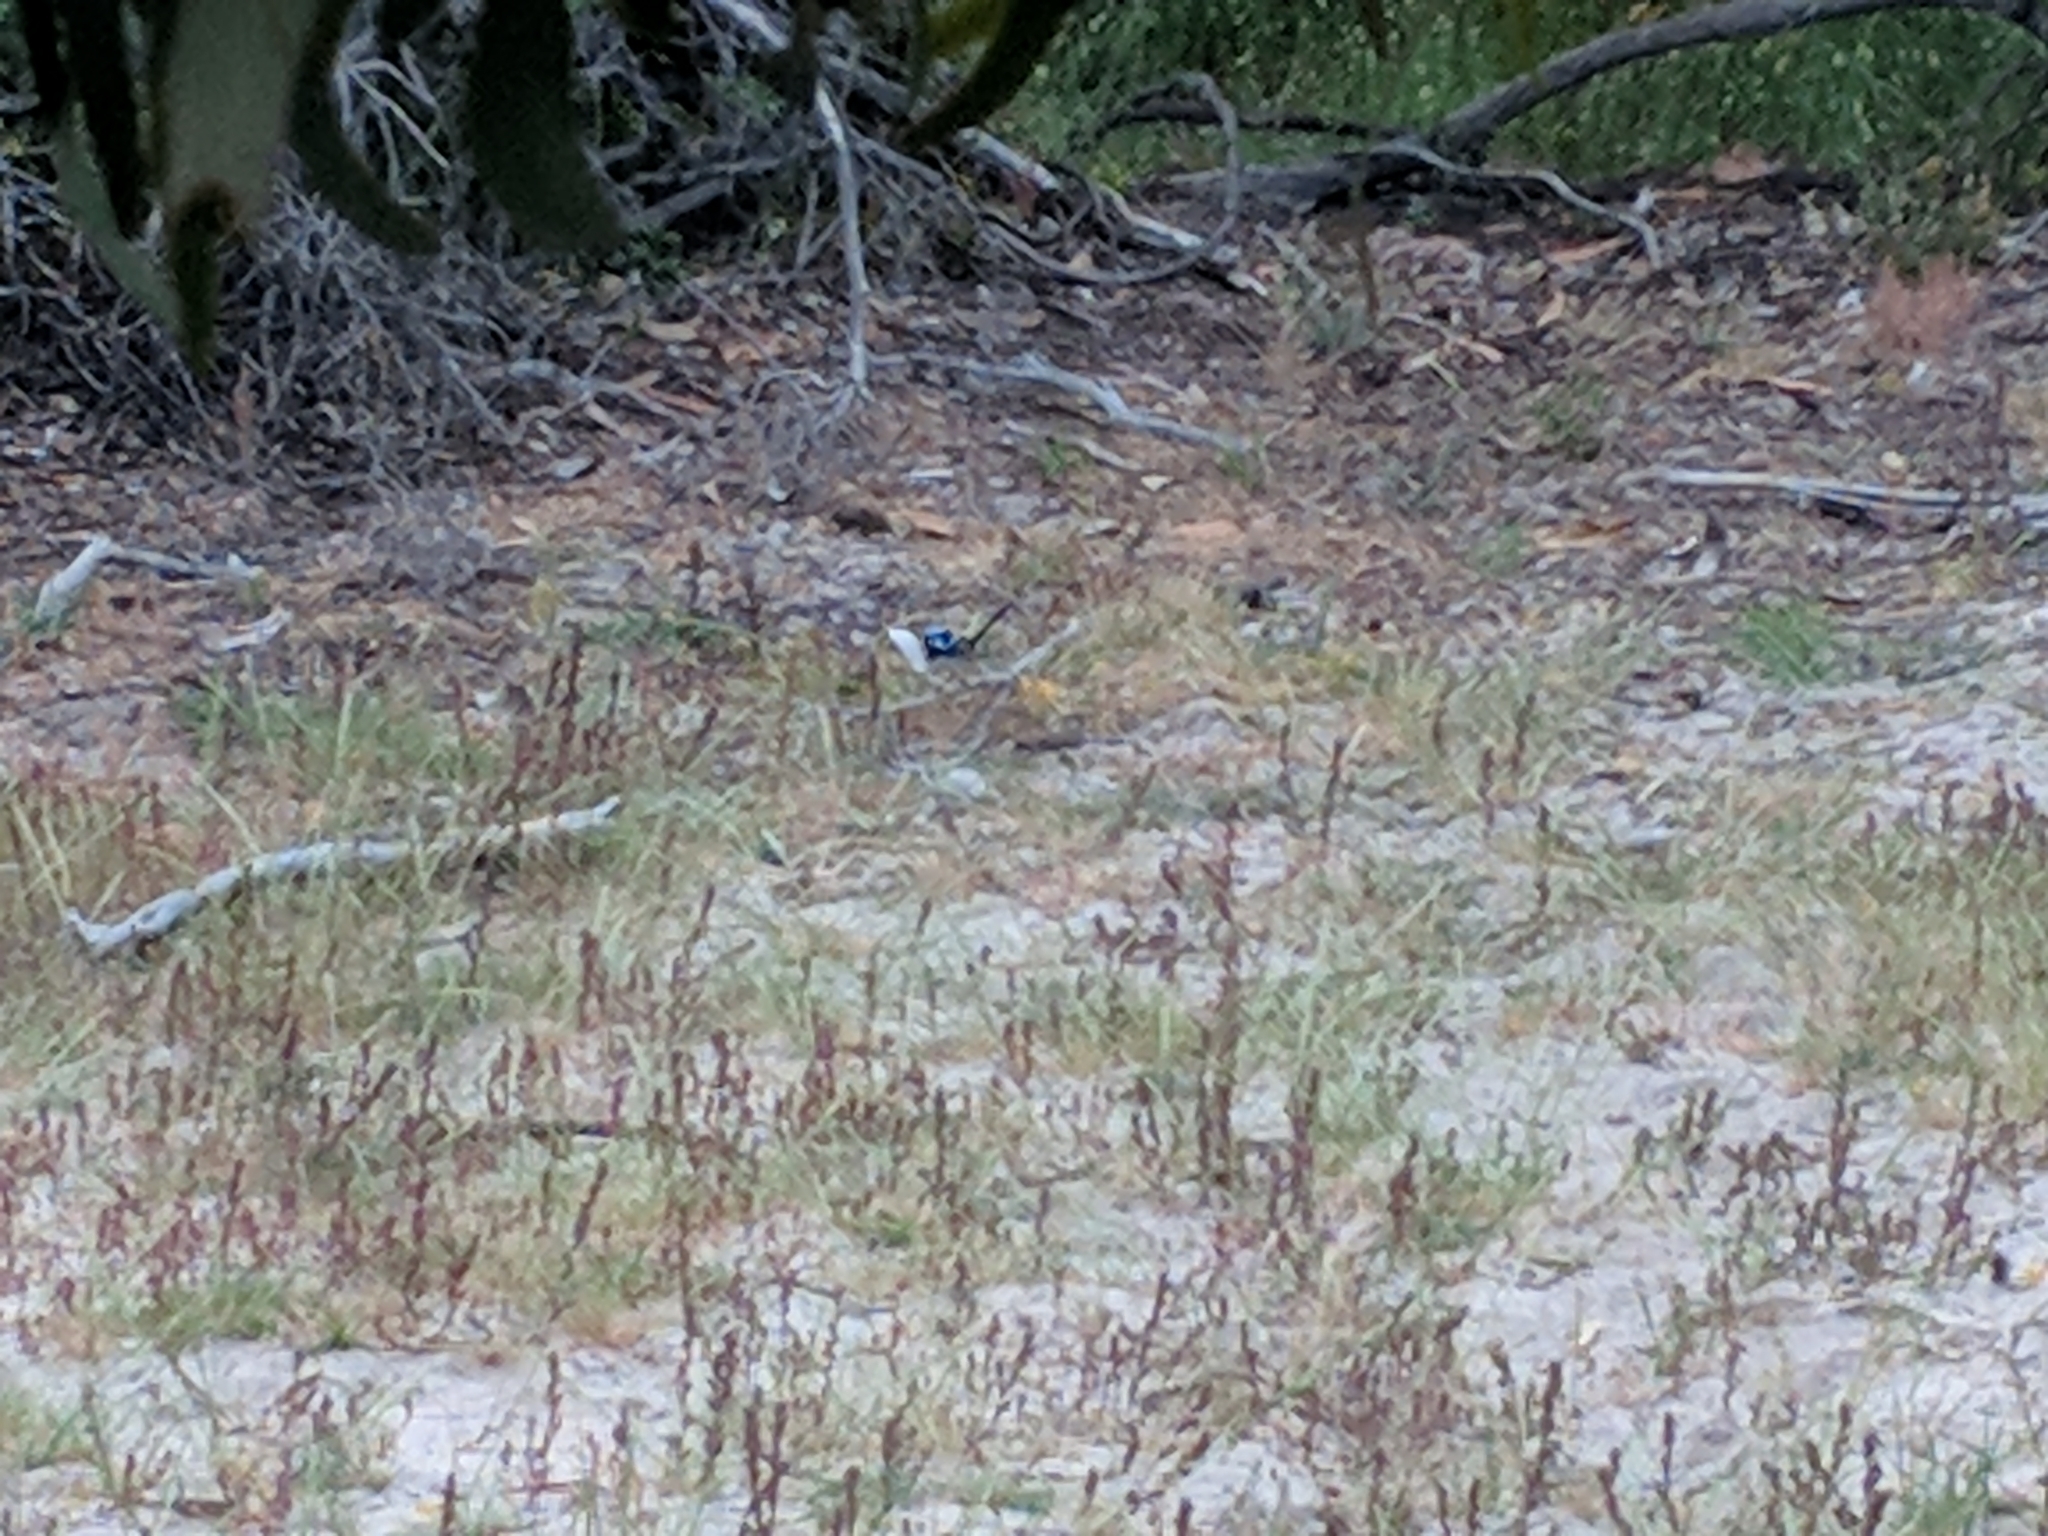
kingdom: Animalia
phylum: Chordata
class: Aves
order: Passeriformes
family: Maluridae
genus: Malurus
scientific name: Malurus cyaneus
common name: Superb fairywren
